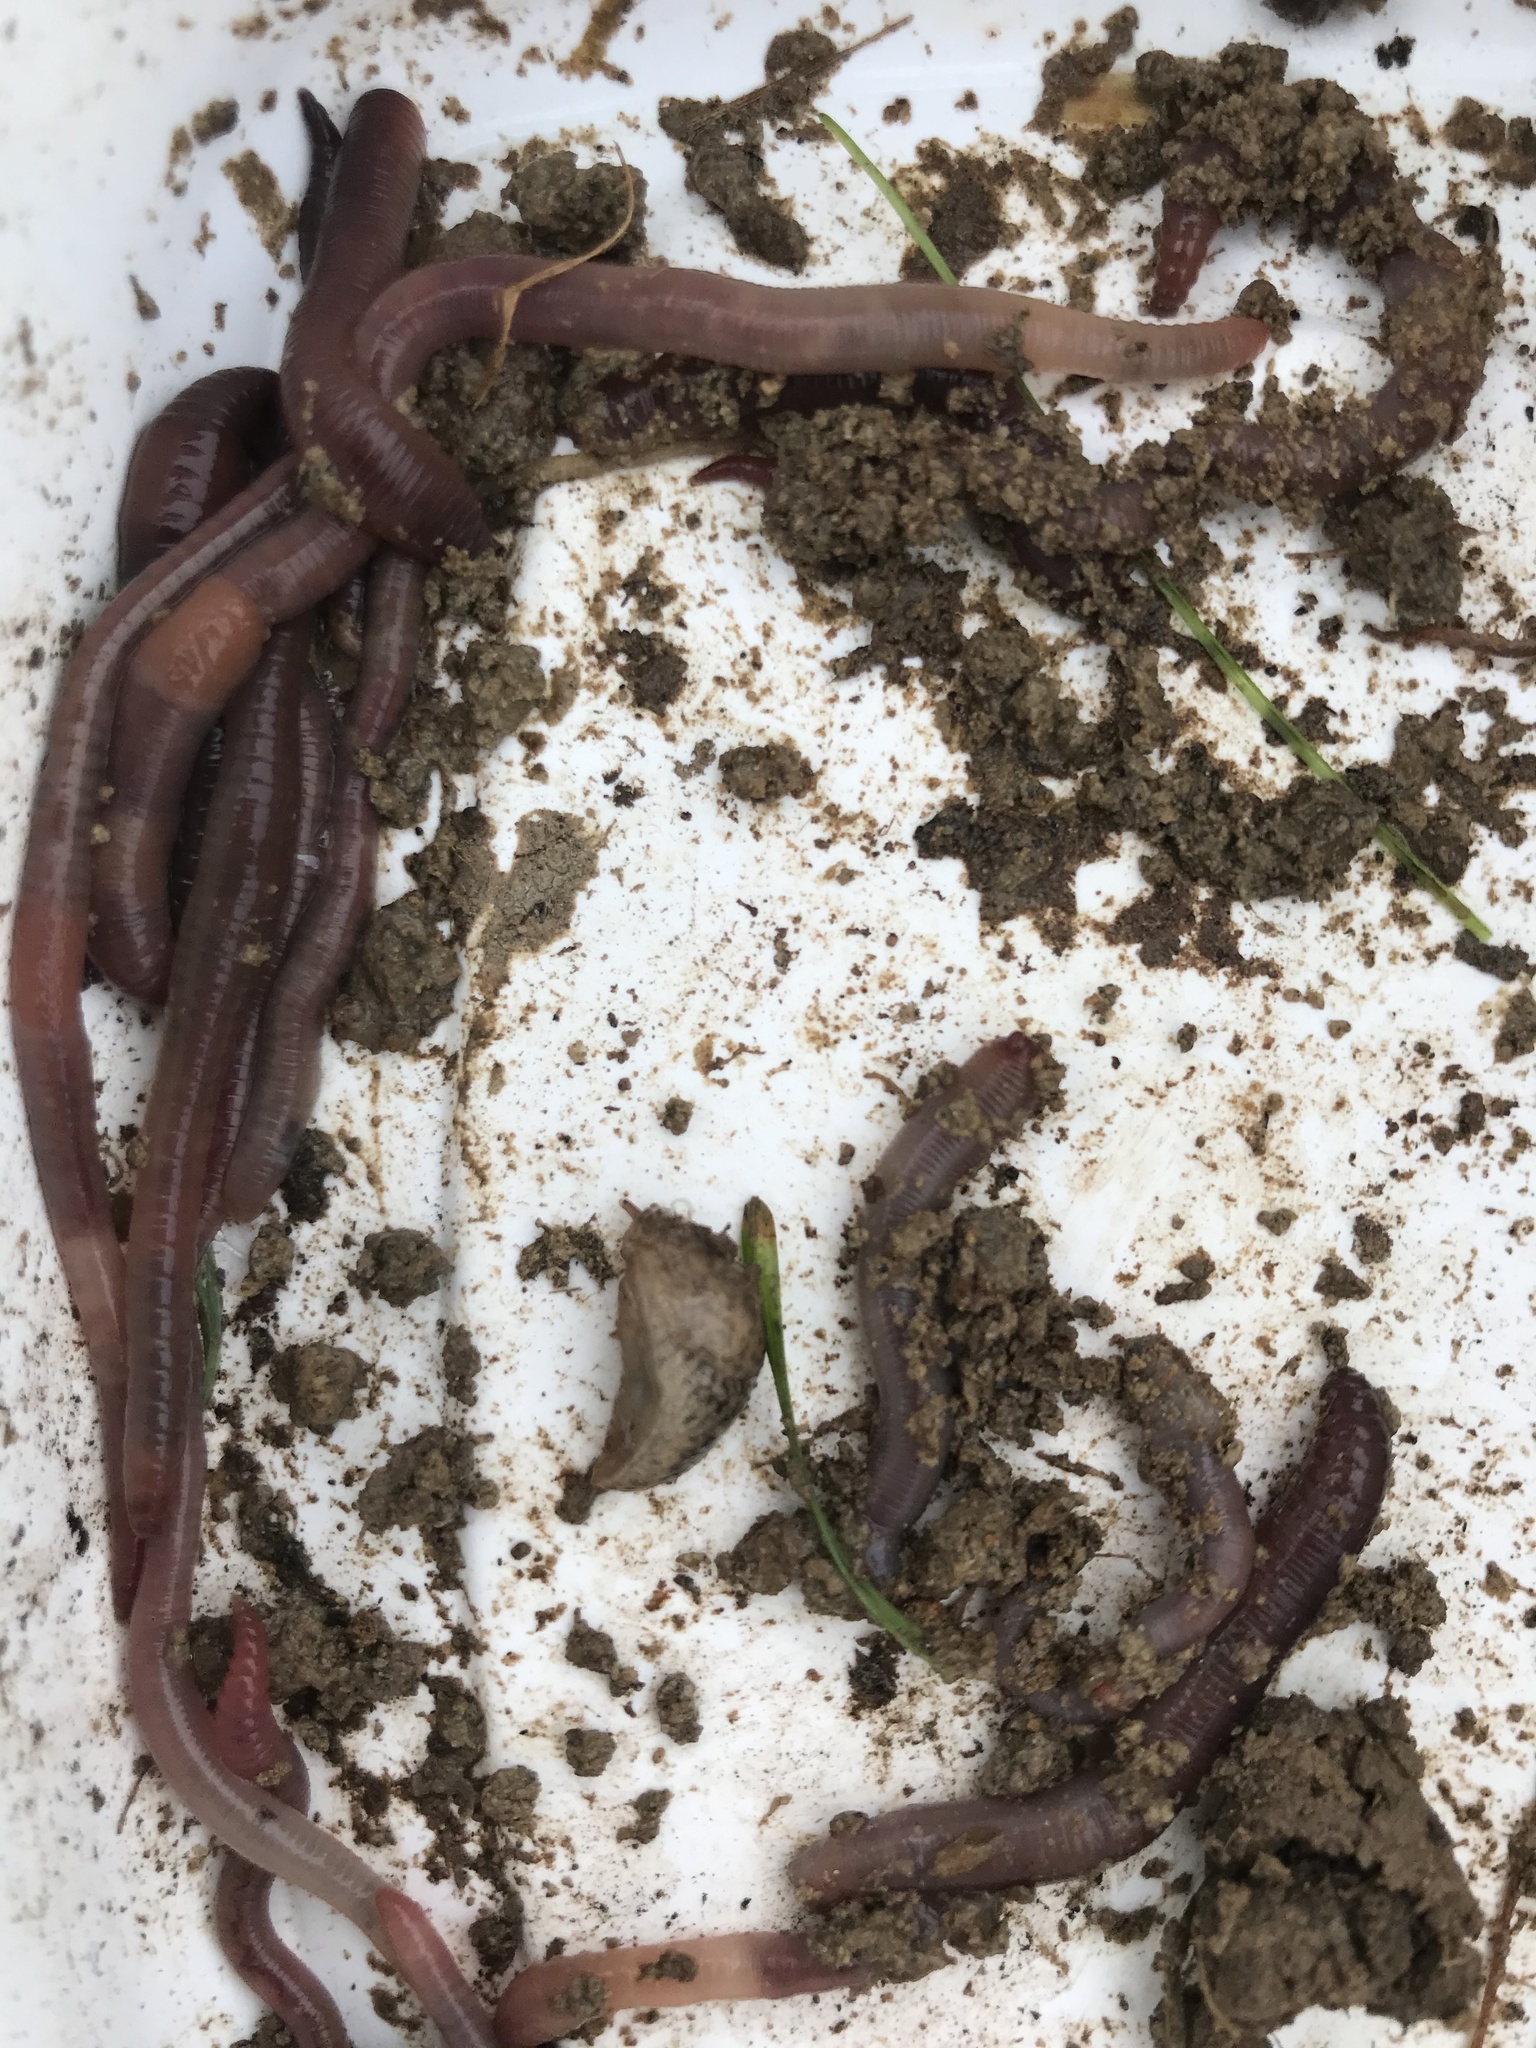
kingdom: Animalia
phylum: Mollusca
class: Gastropoda
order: Stylommatophora
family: Agriolimacidae
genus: Deroceras
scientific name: Deroceras reticulatum
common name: Gray field slug
